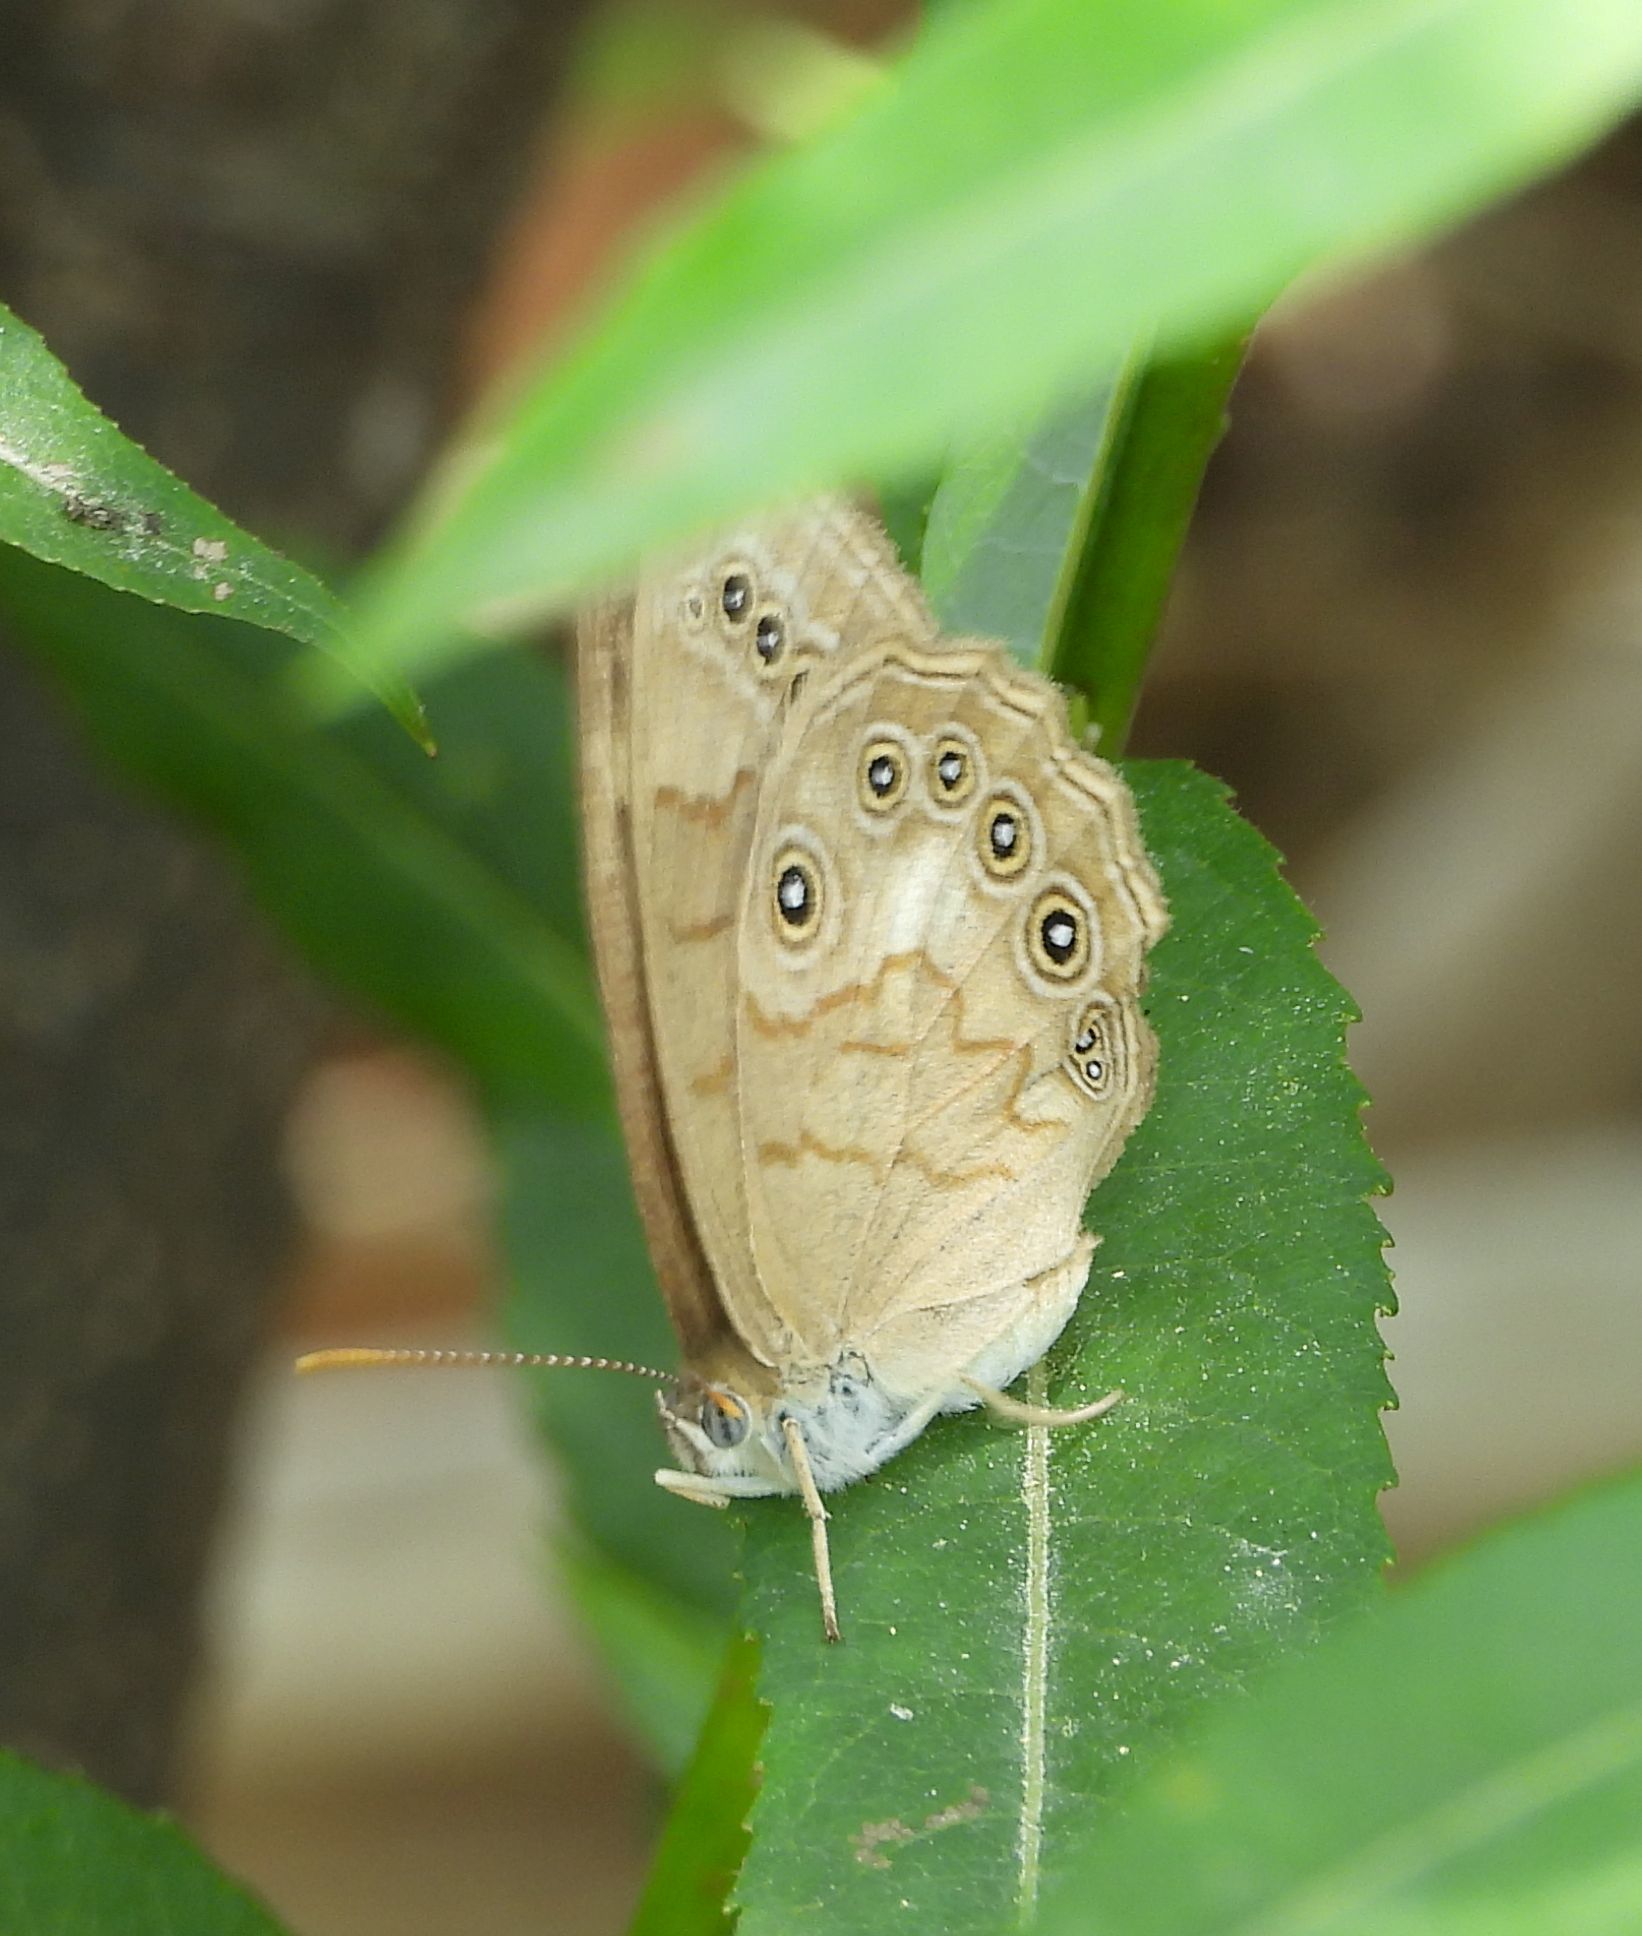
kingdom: Animalia
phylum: Arthropoda
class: Insecta
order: Lepidoptera
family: Nymphalidae
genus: Lethe
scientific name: Lethe eurydice
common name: Eyed brown
